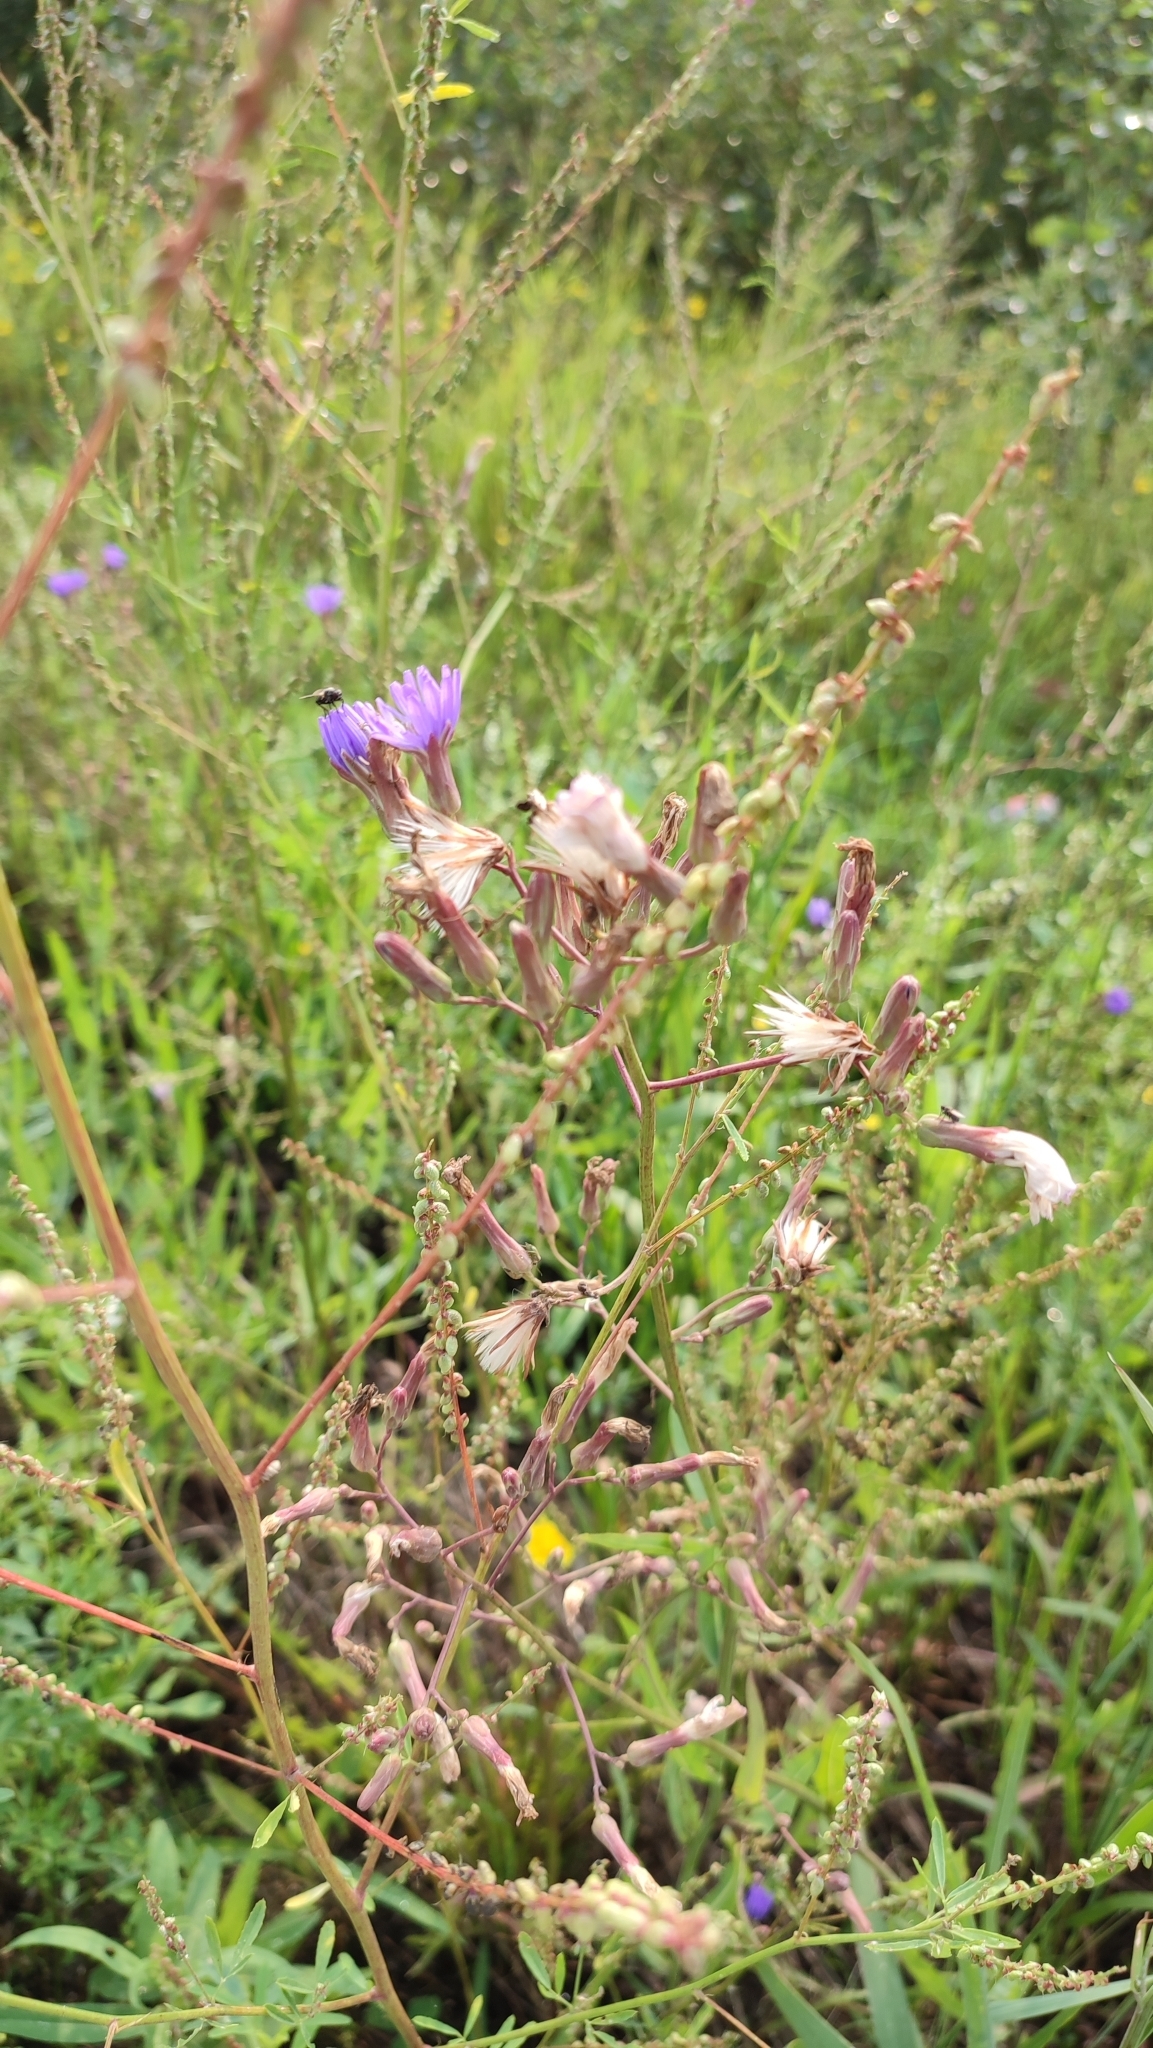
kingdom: Plantae
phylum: Tracheophyta
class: Magnoliopsida
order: Asterales
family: Asteraceae
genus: Lactuca
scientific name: Lactuca tatarica
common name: Blue lettuce
